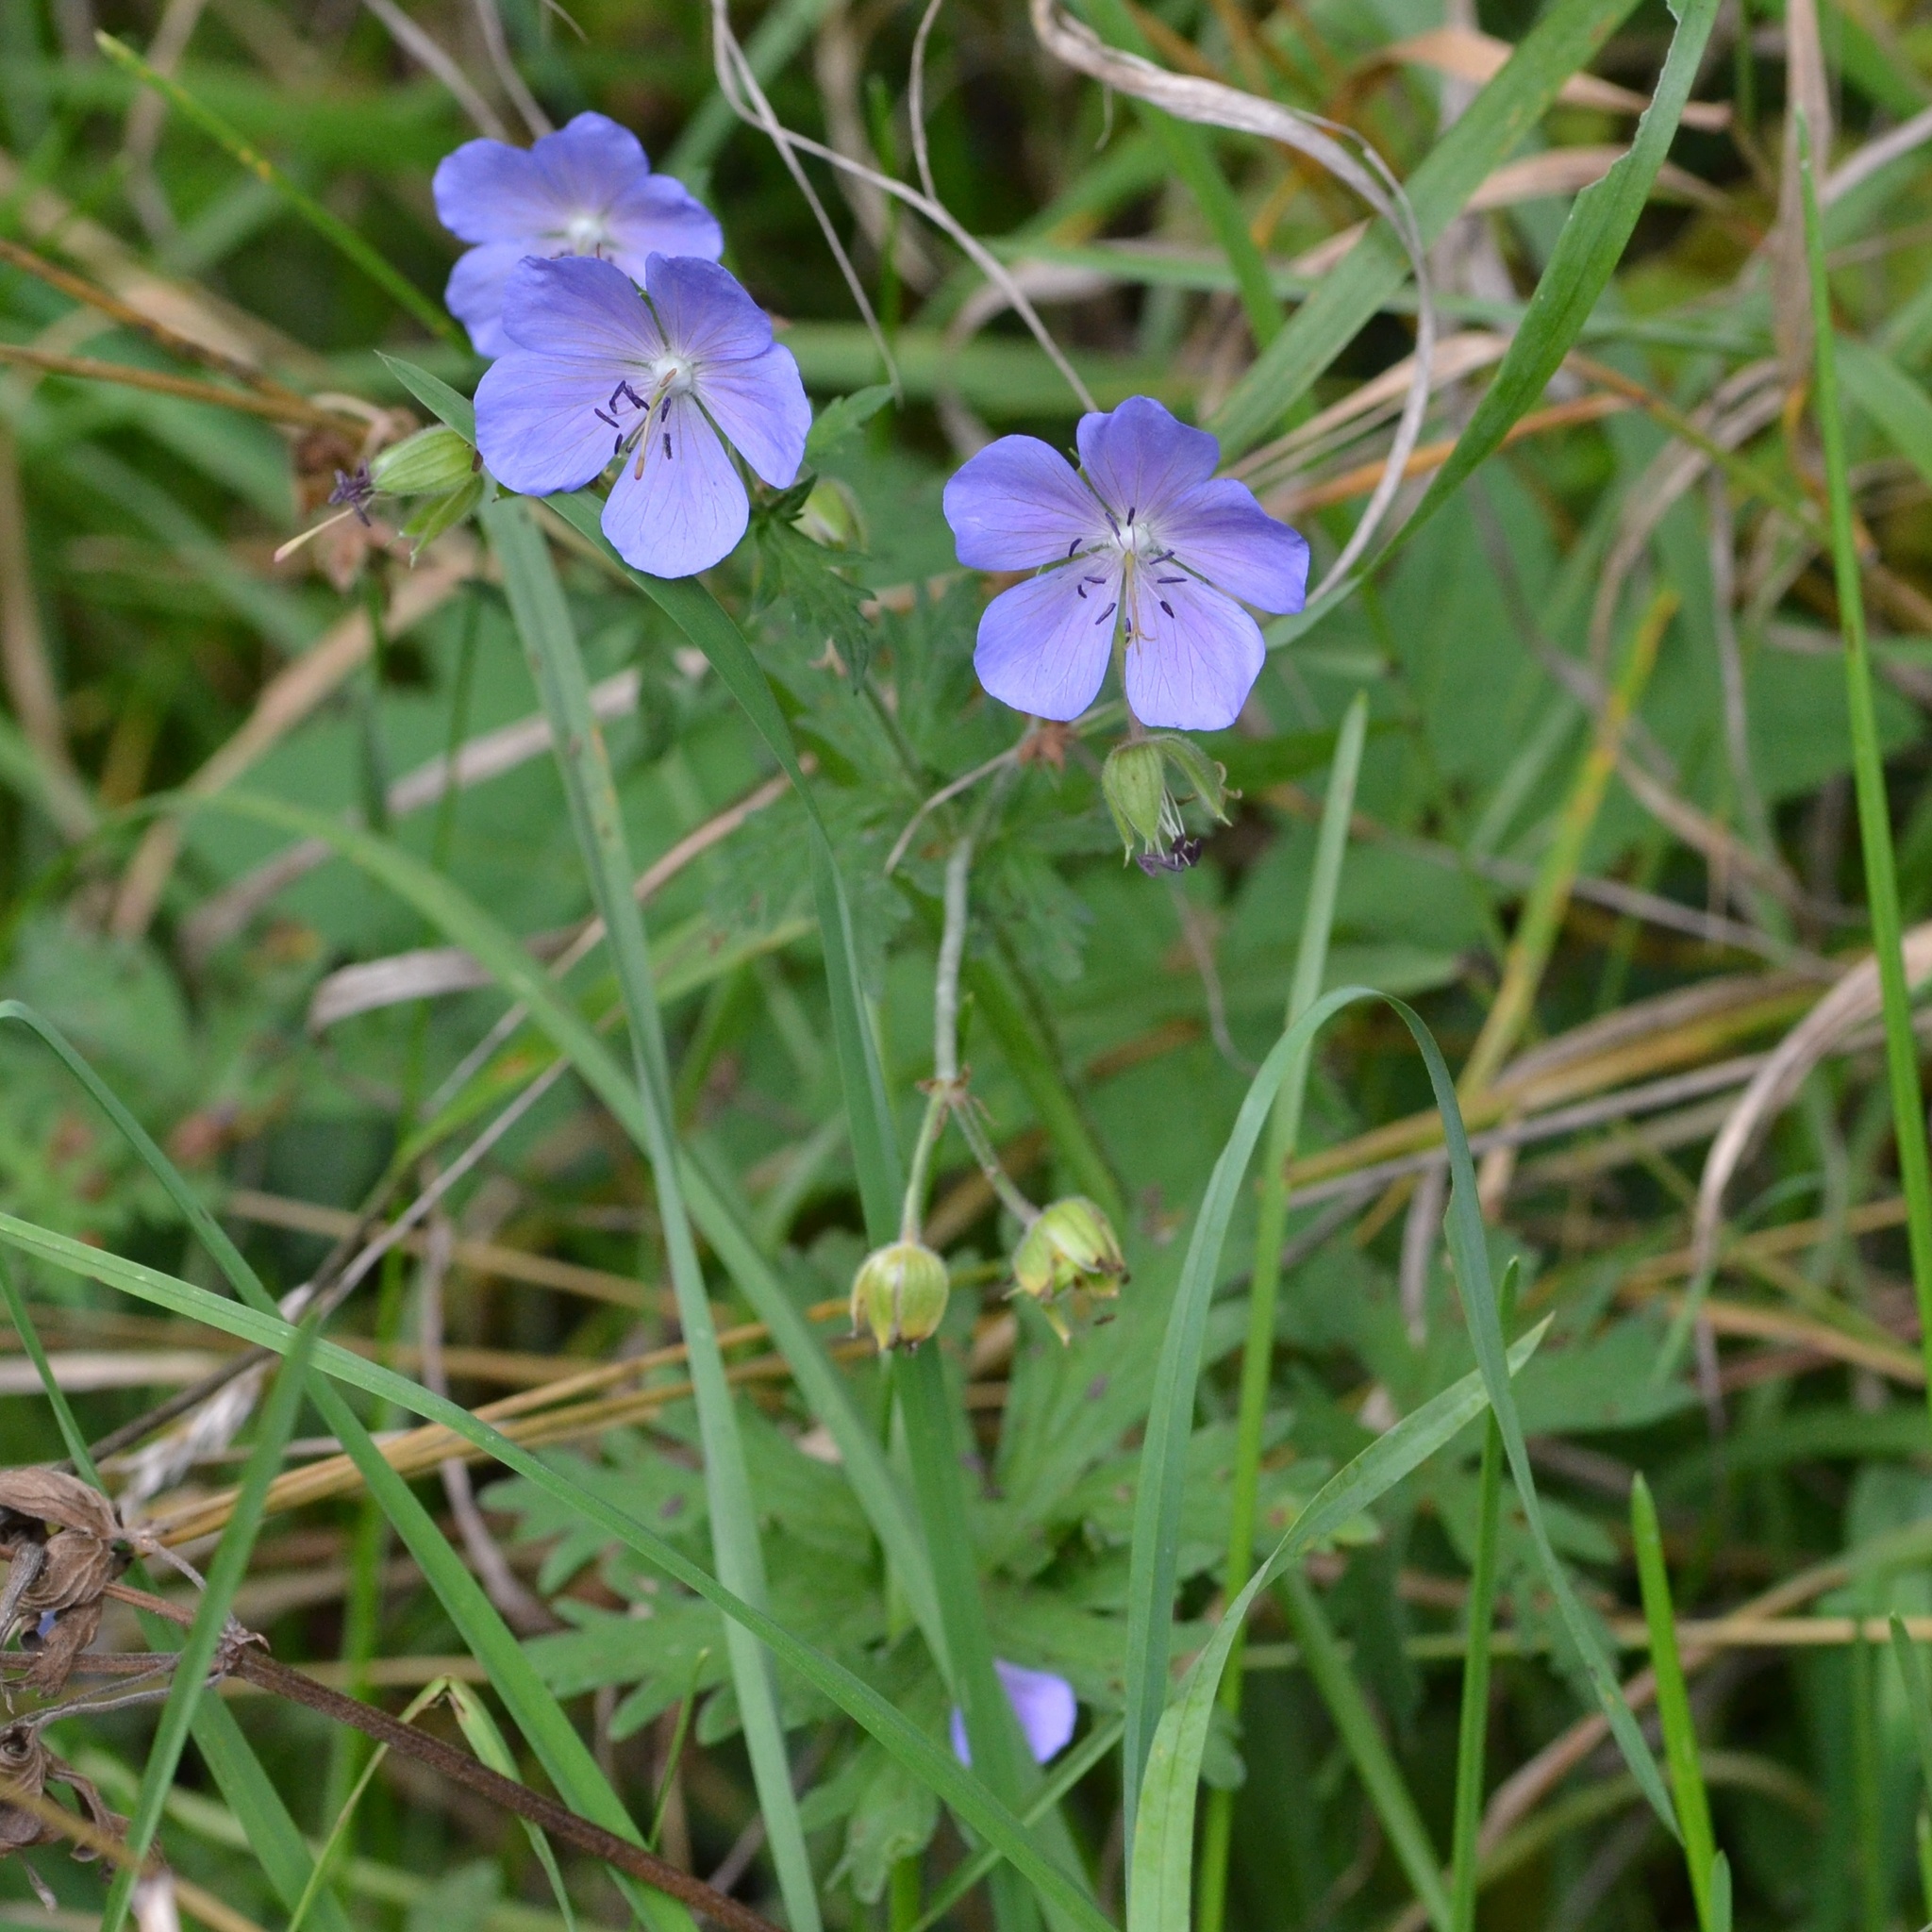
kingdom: Plantae
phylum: Tracheophyta
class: Magnoliopsida
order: Geraniales
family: Geraniaceae
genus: Geranium
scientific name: Geranium pratense
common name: Meadow crane's-bill
